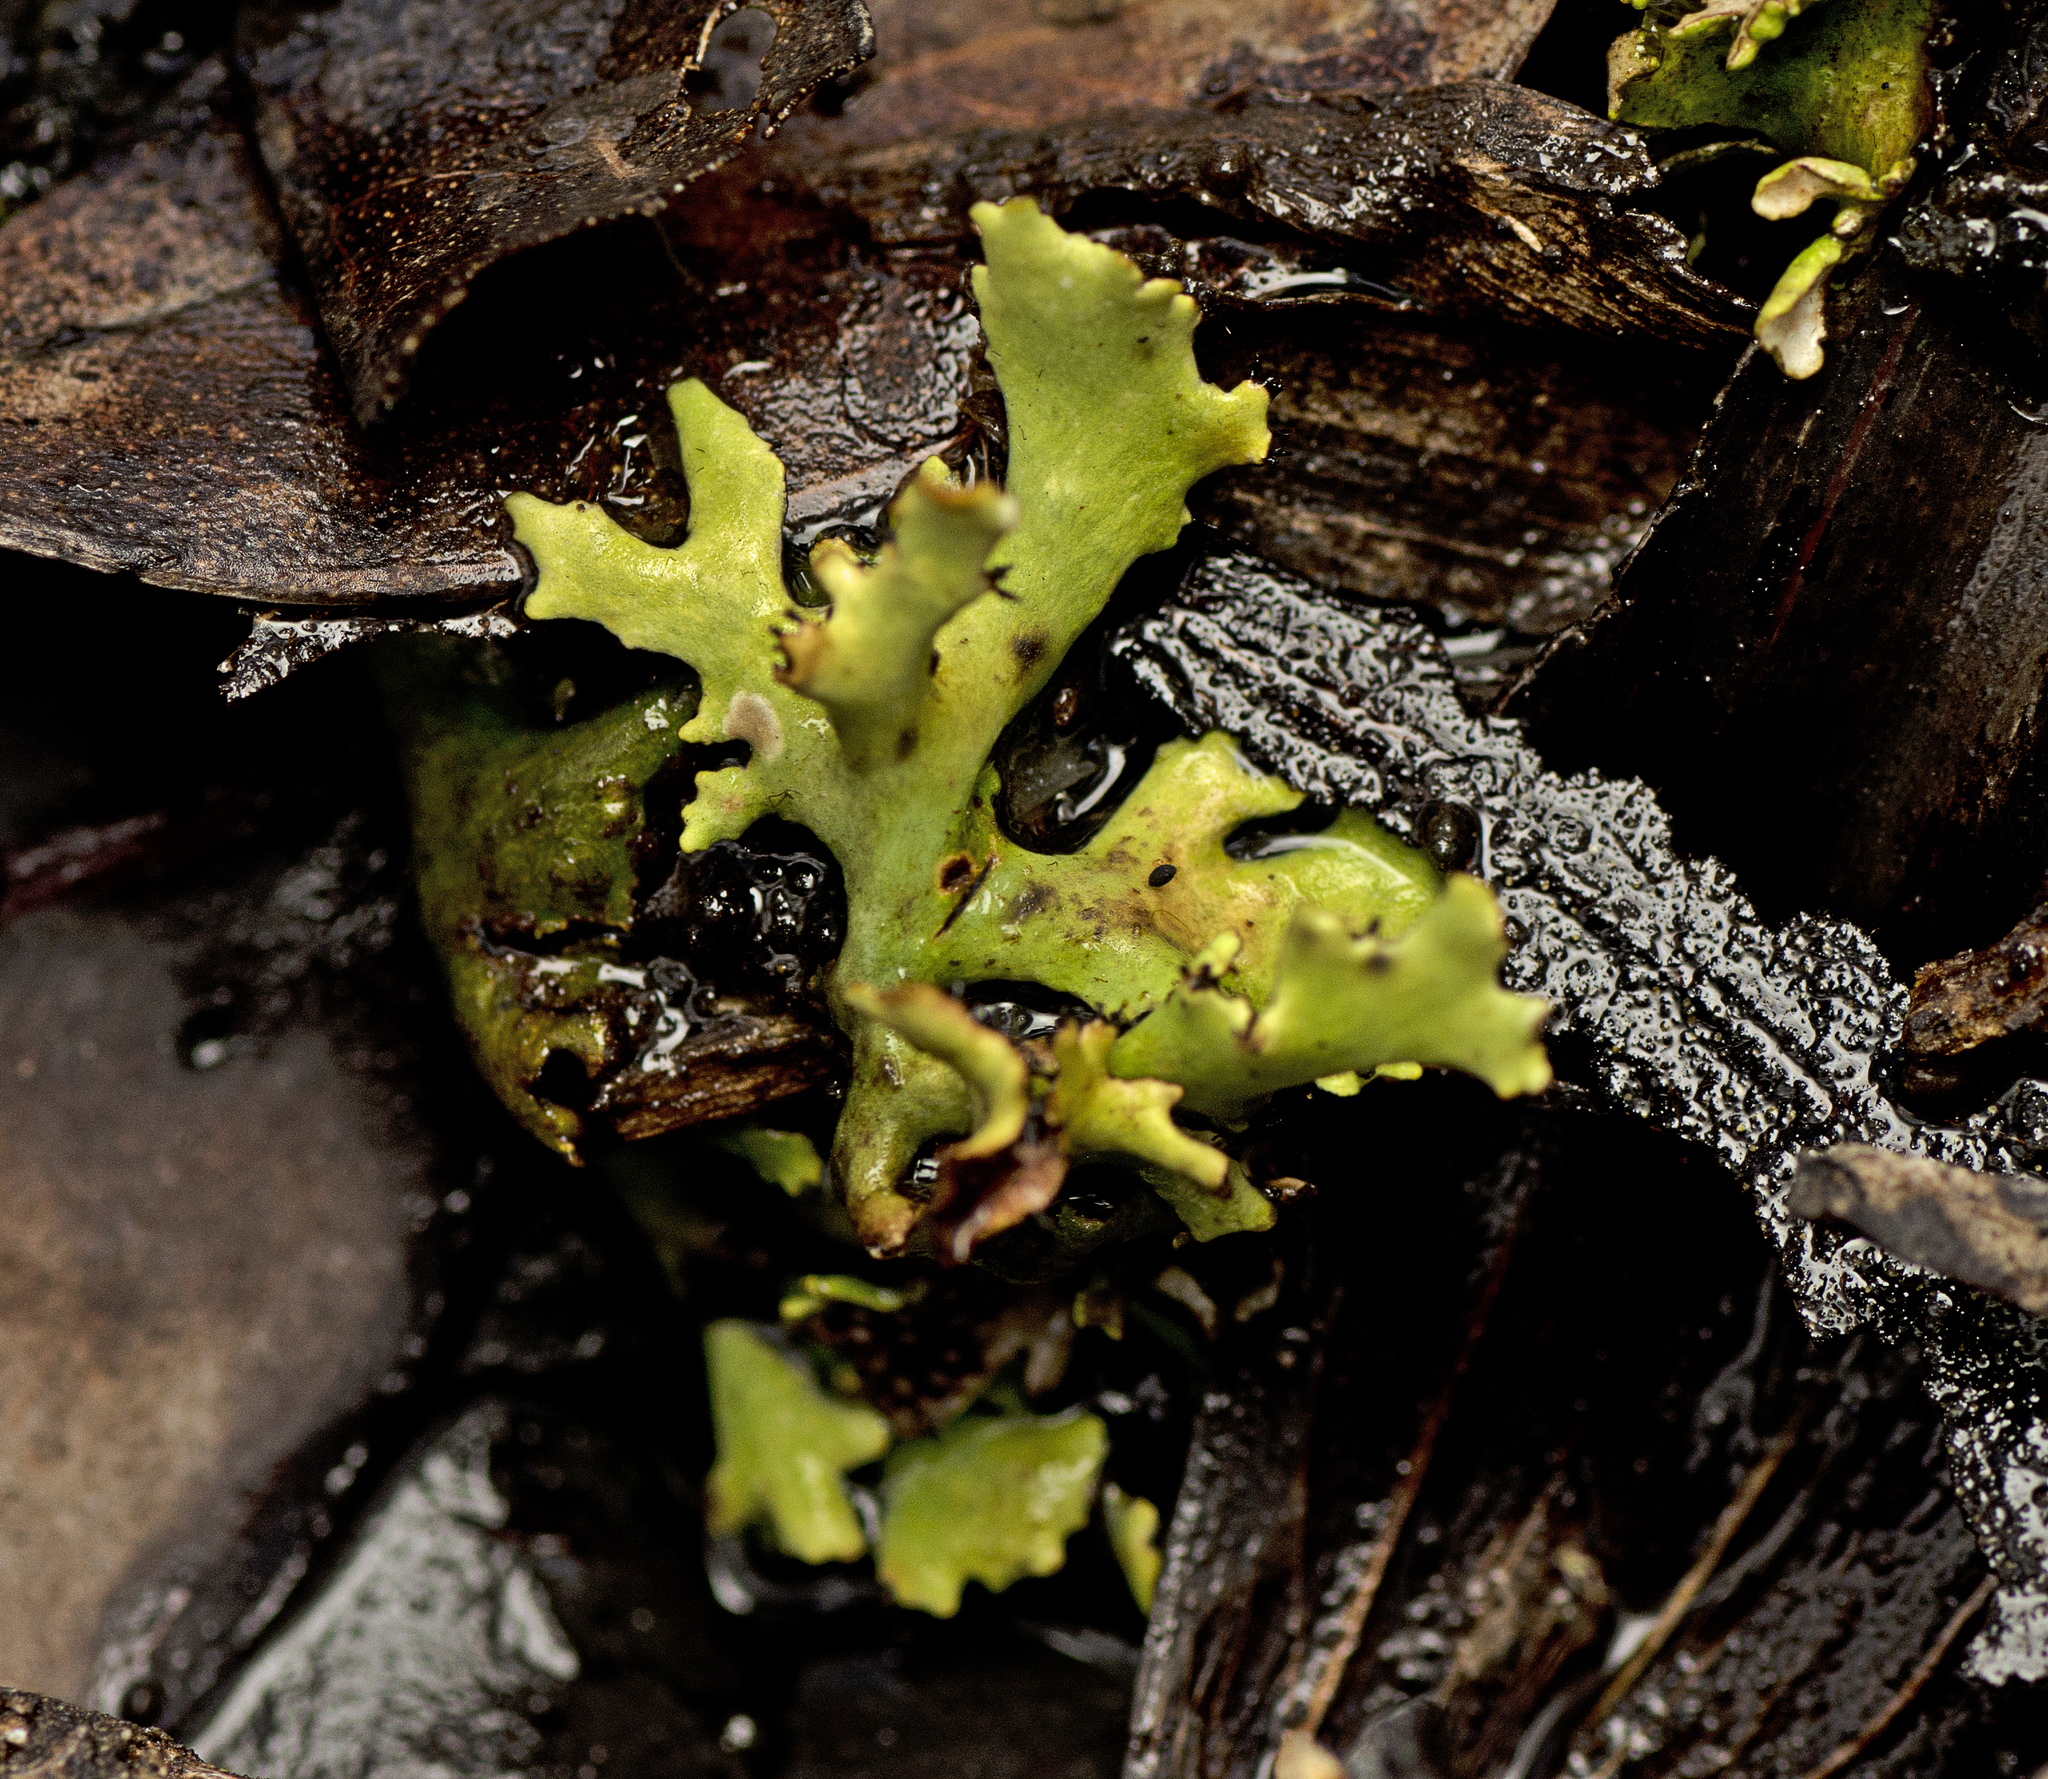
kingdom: Fungi
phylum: Ascomycota
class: Lecanoromycetes
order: Lecanorales
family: Cladoniaceae
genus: Cladia
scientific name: Cladia beaugleholei
